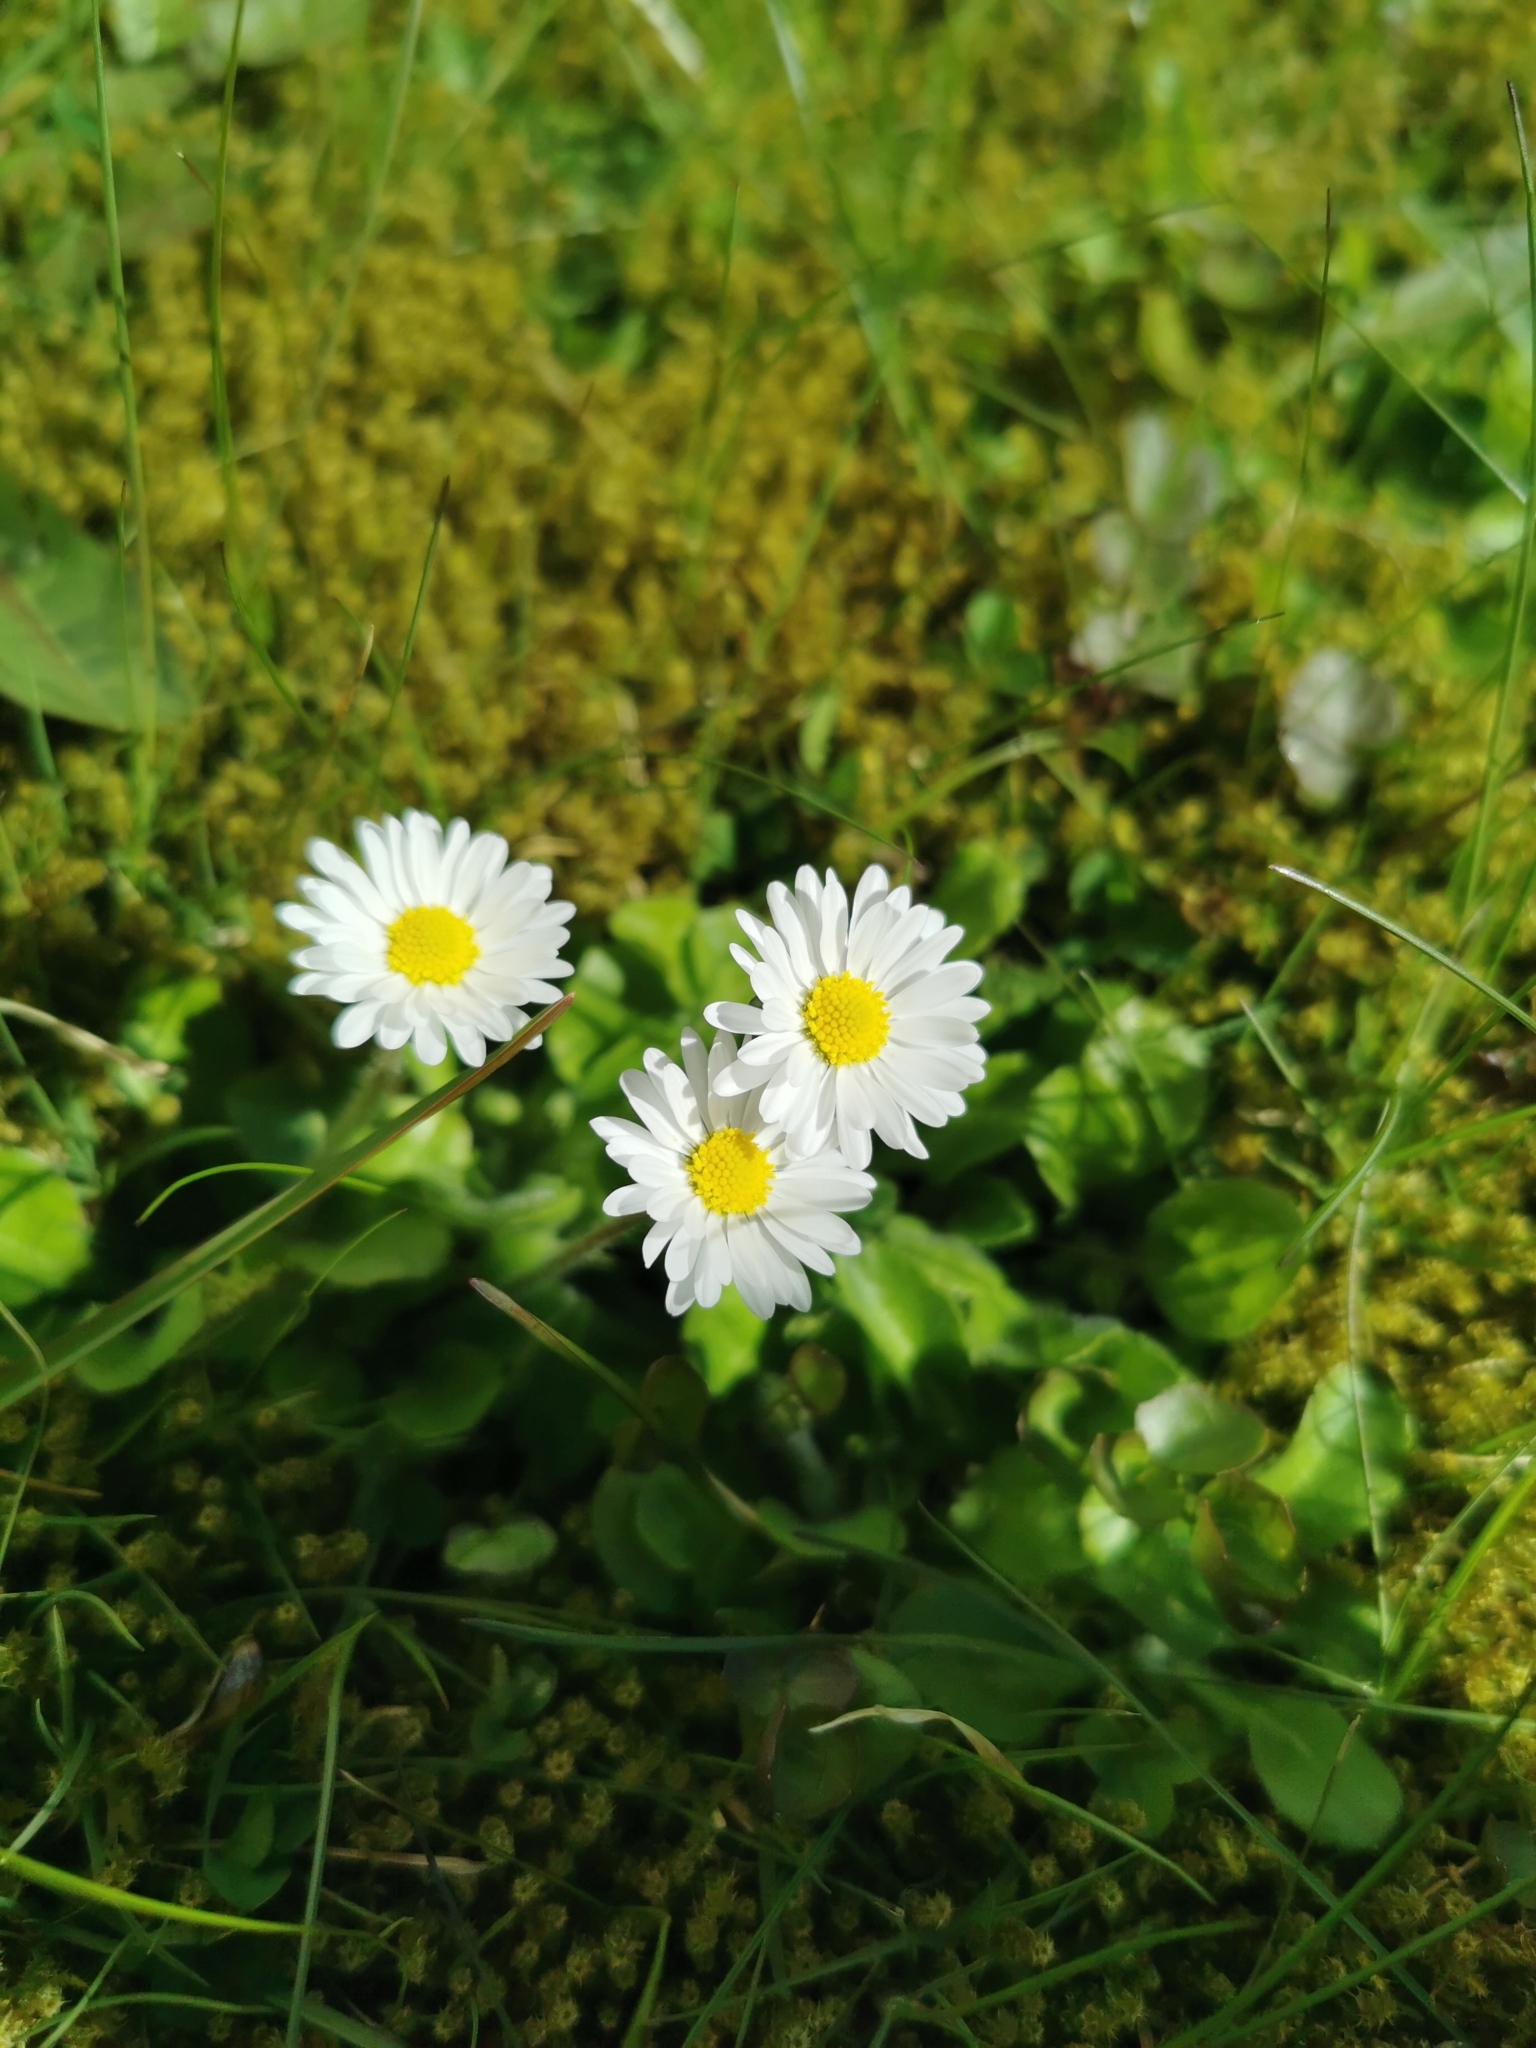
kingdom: Plantae
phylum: Tracheophyta
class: Magnoliopsida
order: Asterales
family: Asteraceae
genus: Bellis
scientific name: Bellis perennis
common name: Lawndaisy
